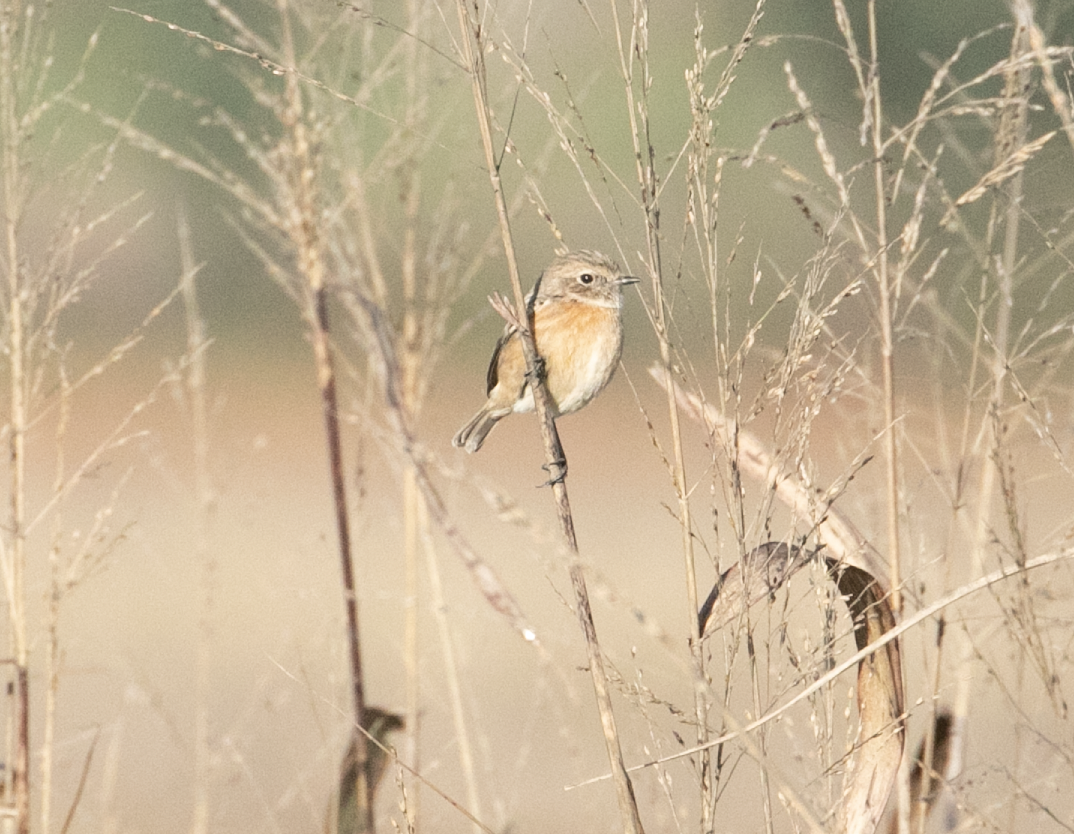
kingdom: Animalia
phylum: Chordata
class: Aves
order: Passeriformes
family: Muscicapidae
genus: Saxicola
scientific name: Saxicola rubicola
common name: European stonechat
